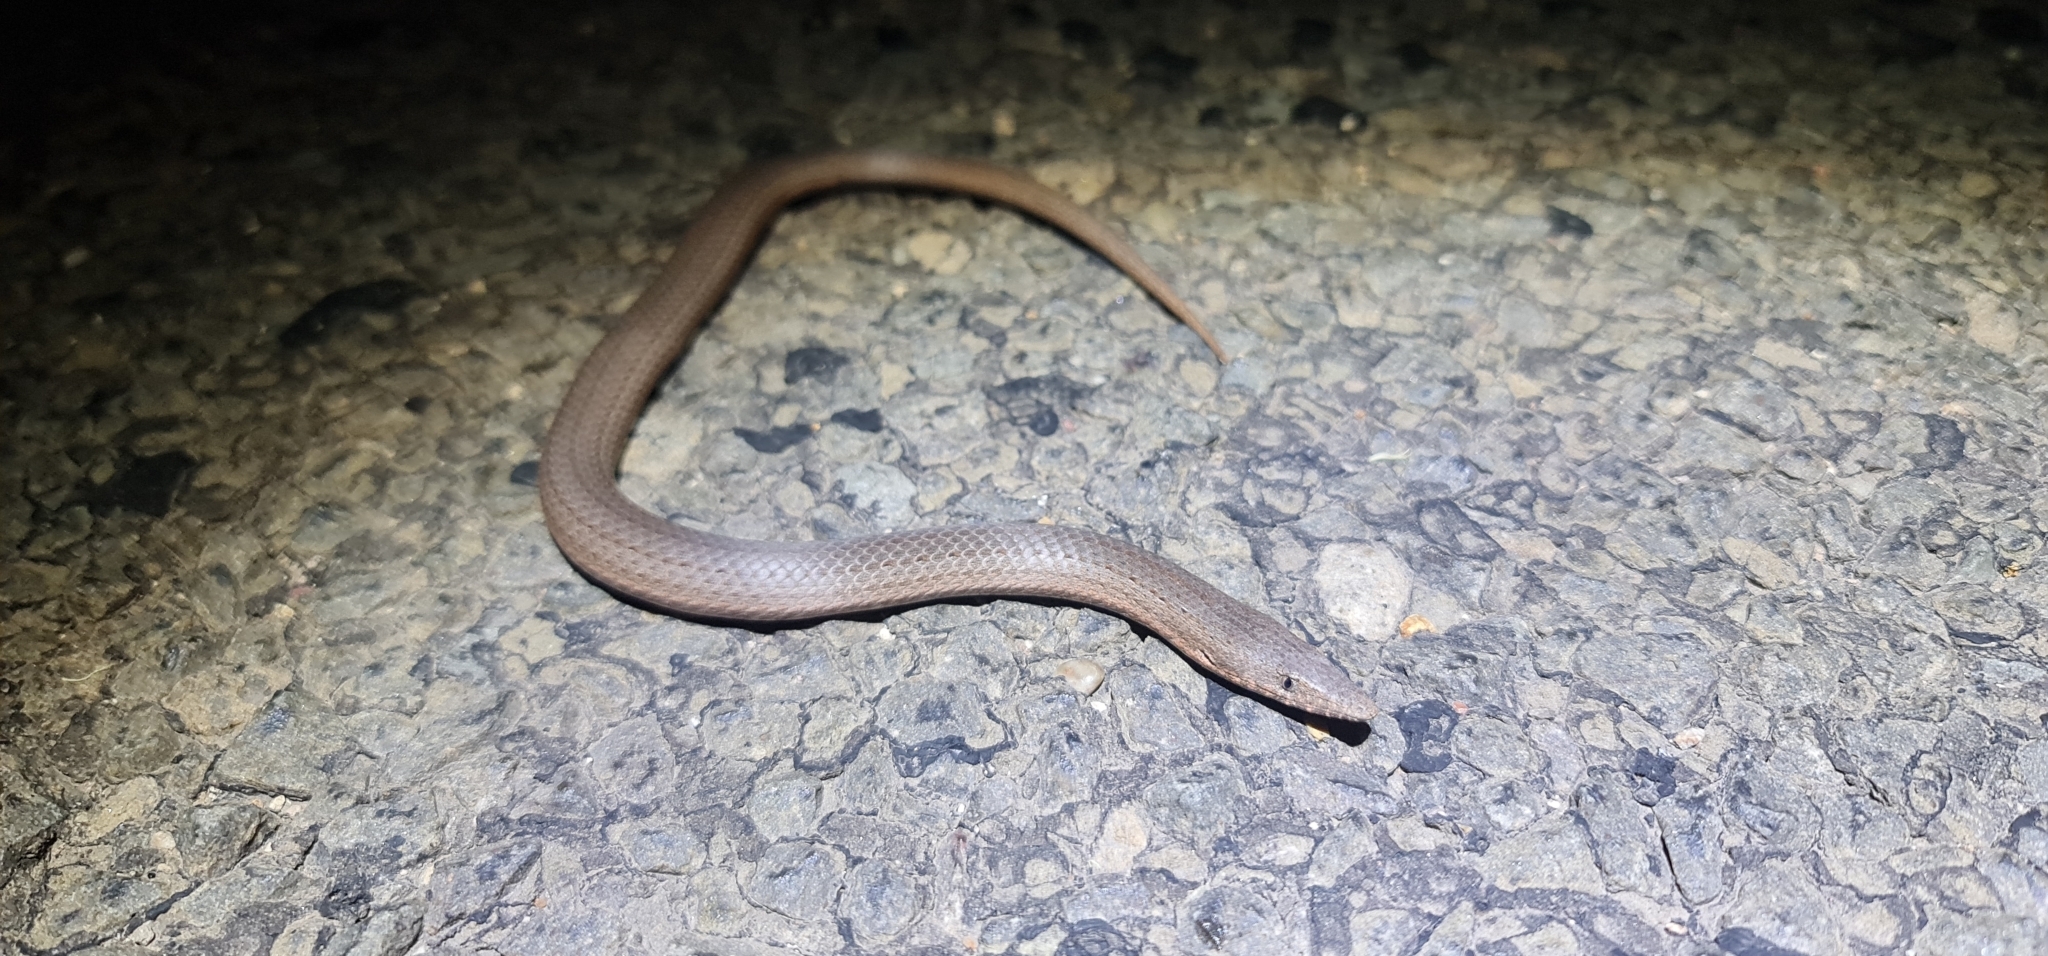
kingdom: Animalia
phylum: Chordata
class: Squamata
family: Pygopodidae
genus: Lialis
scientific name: Lialis burtonis
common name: Burton's legless lizard
